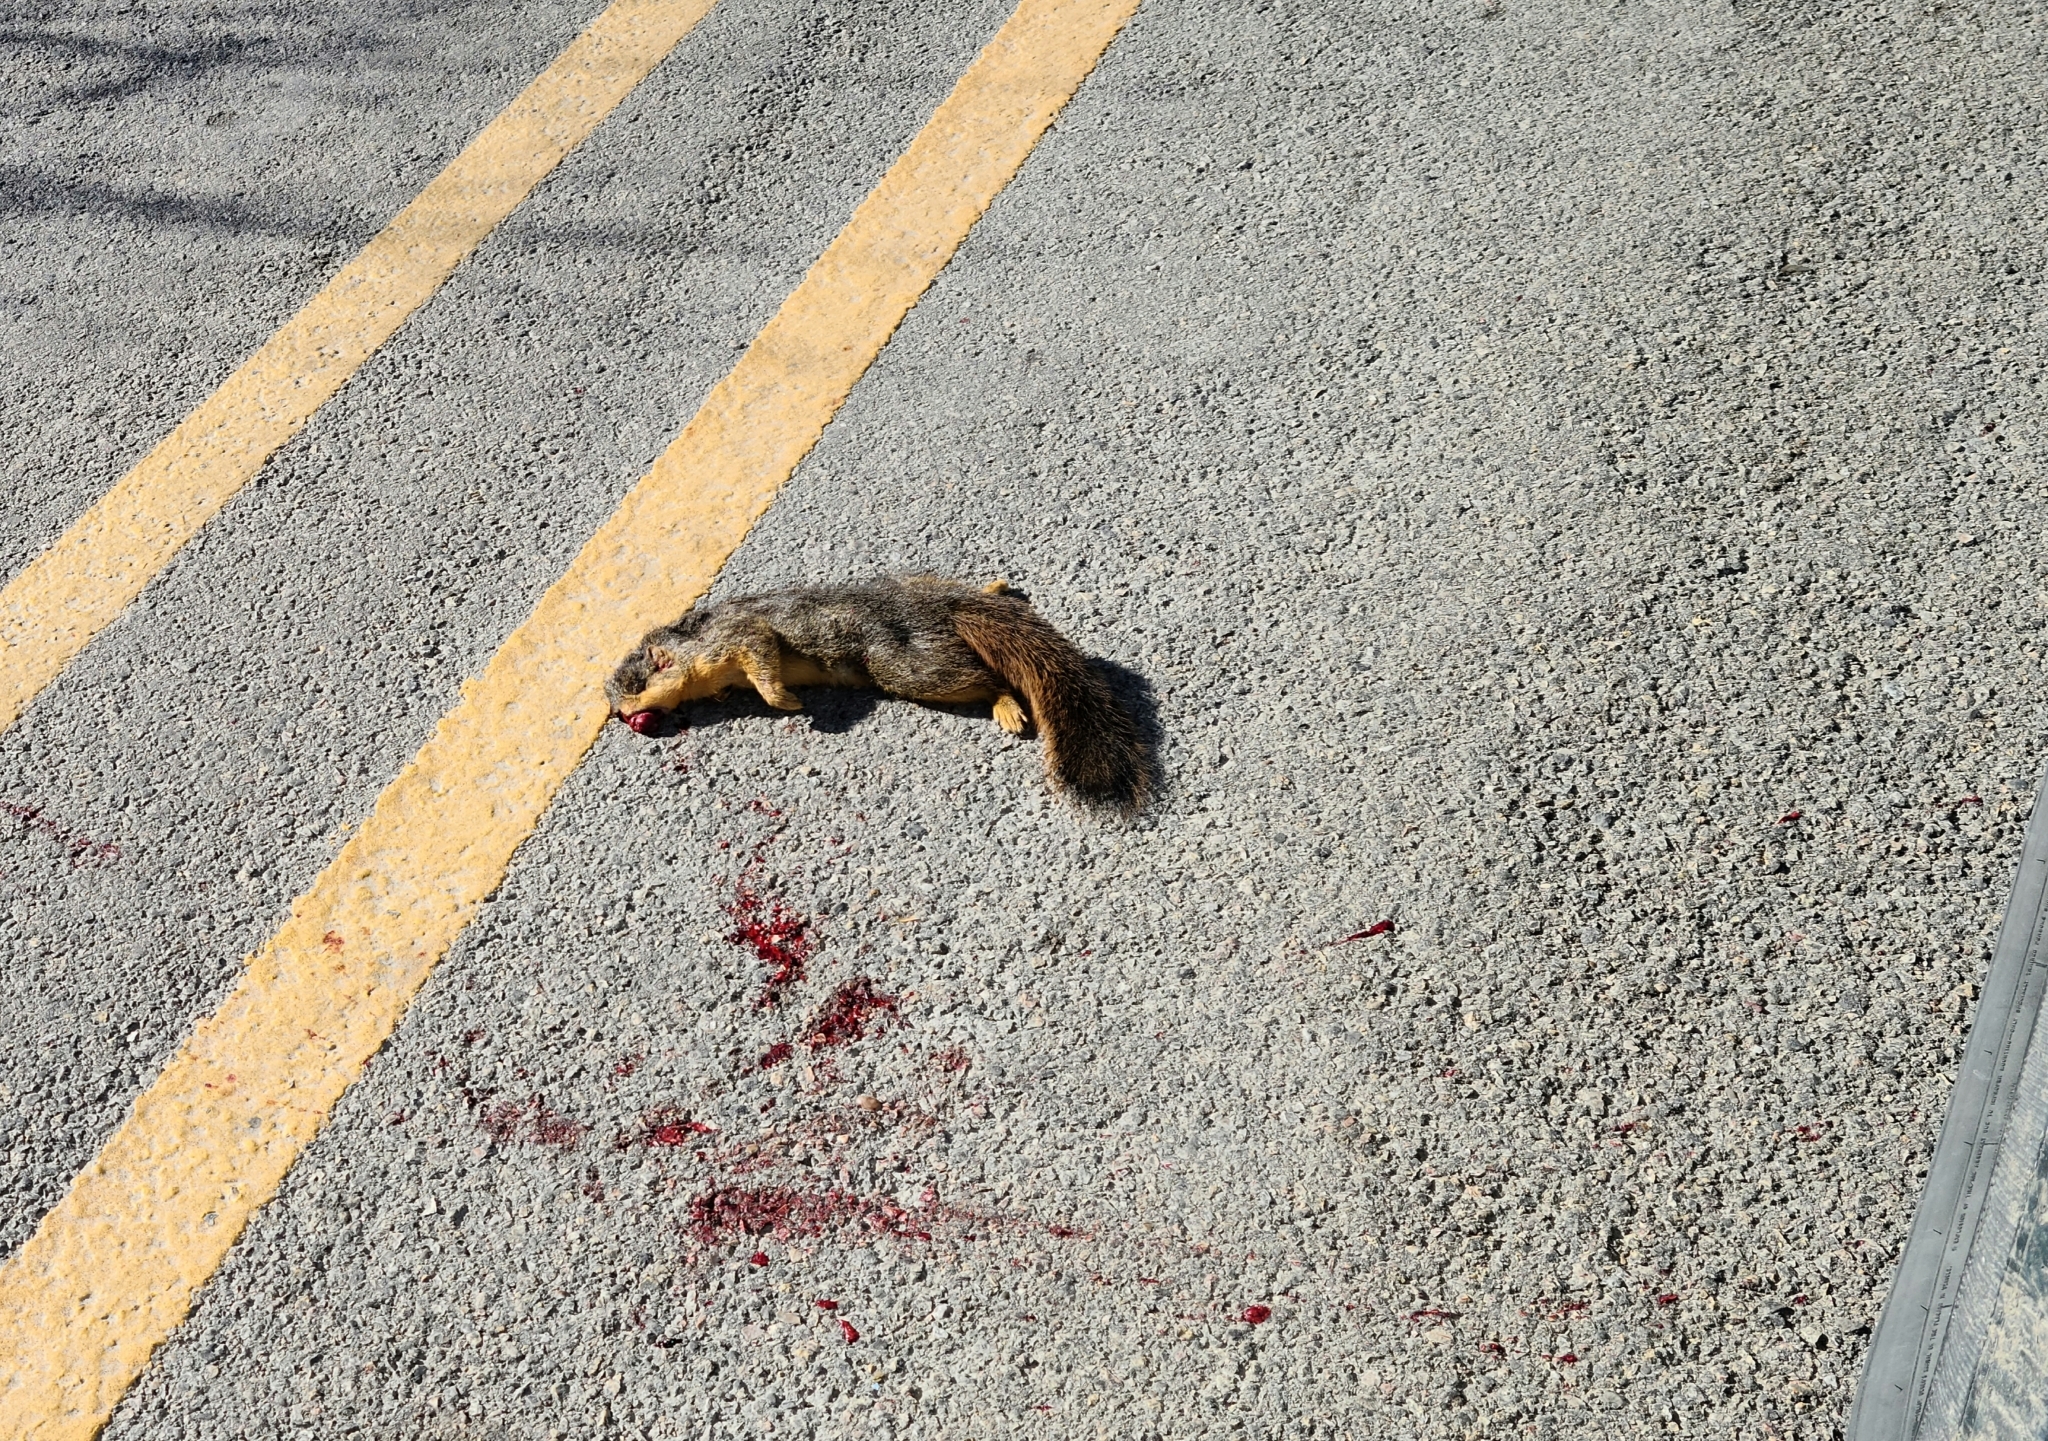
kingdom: Animalia
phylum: Chordata
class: Mammalia
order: Rodentia
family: Sciuridae
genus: Sciurus
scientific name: Sciurus niger
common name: Fox squirrel
